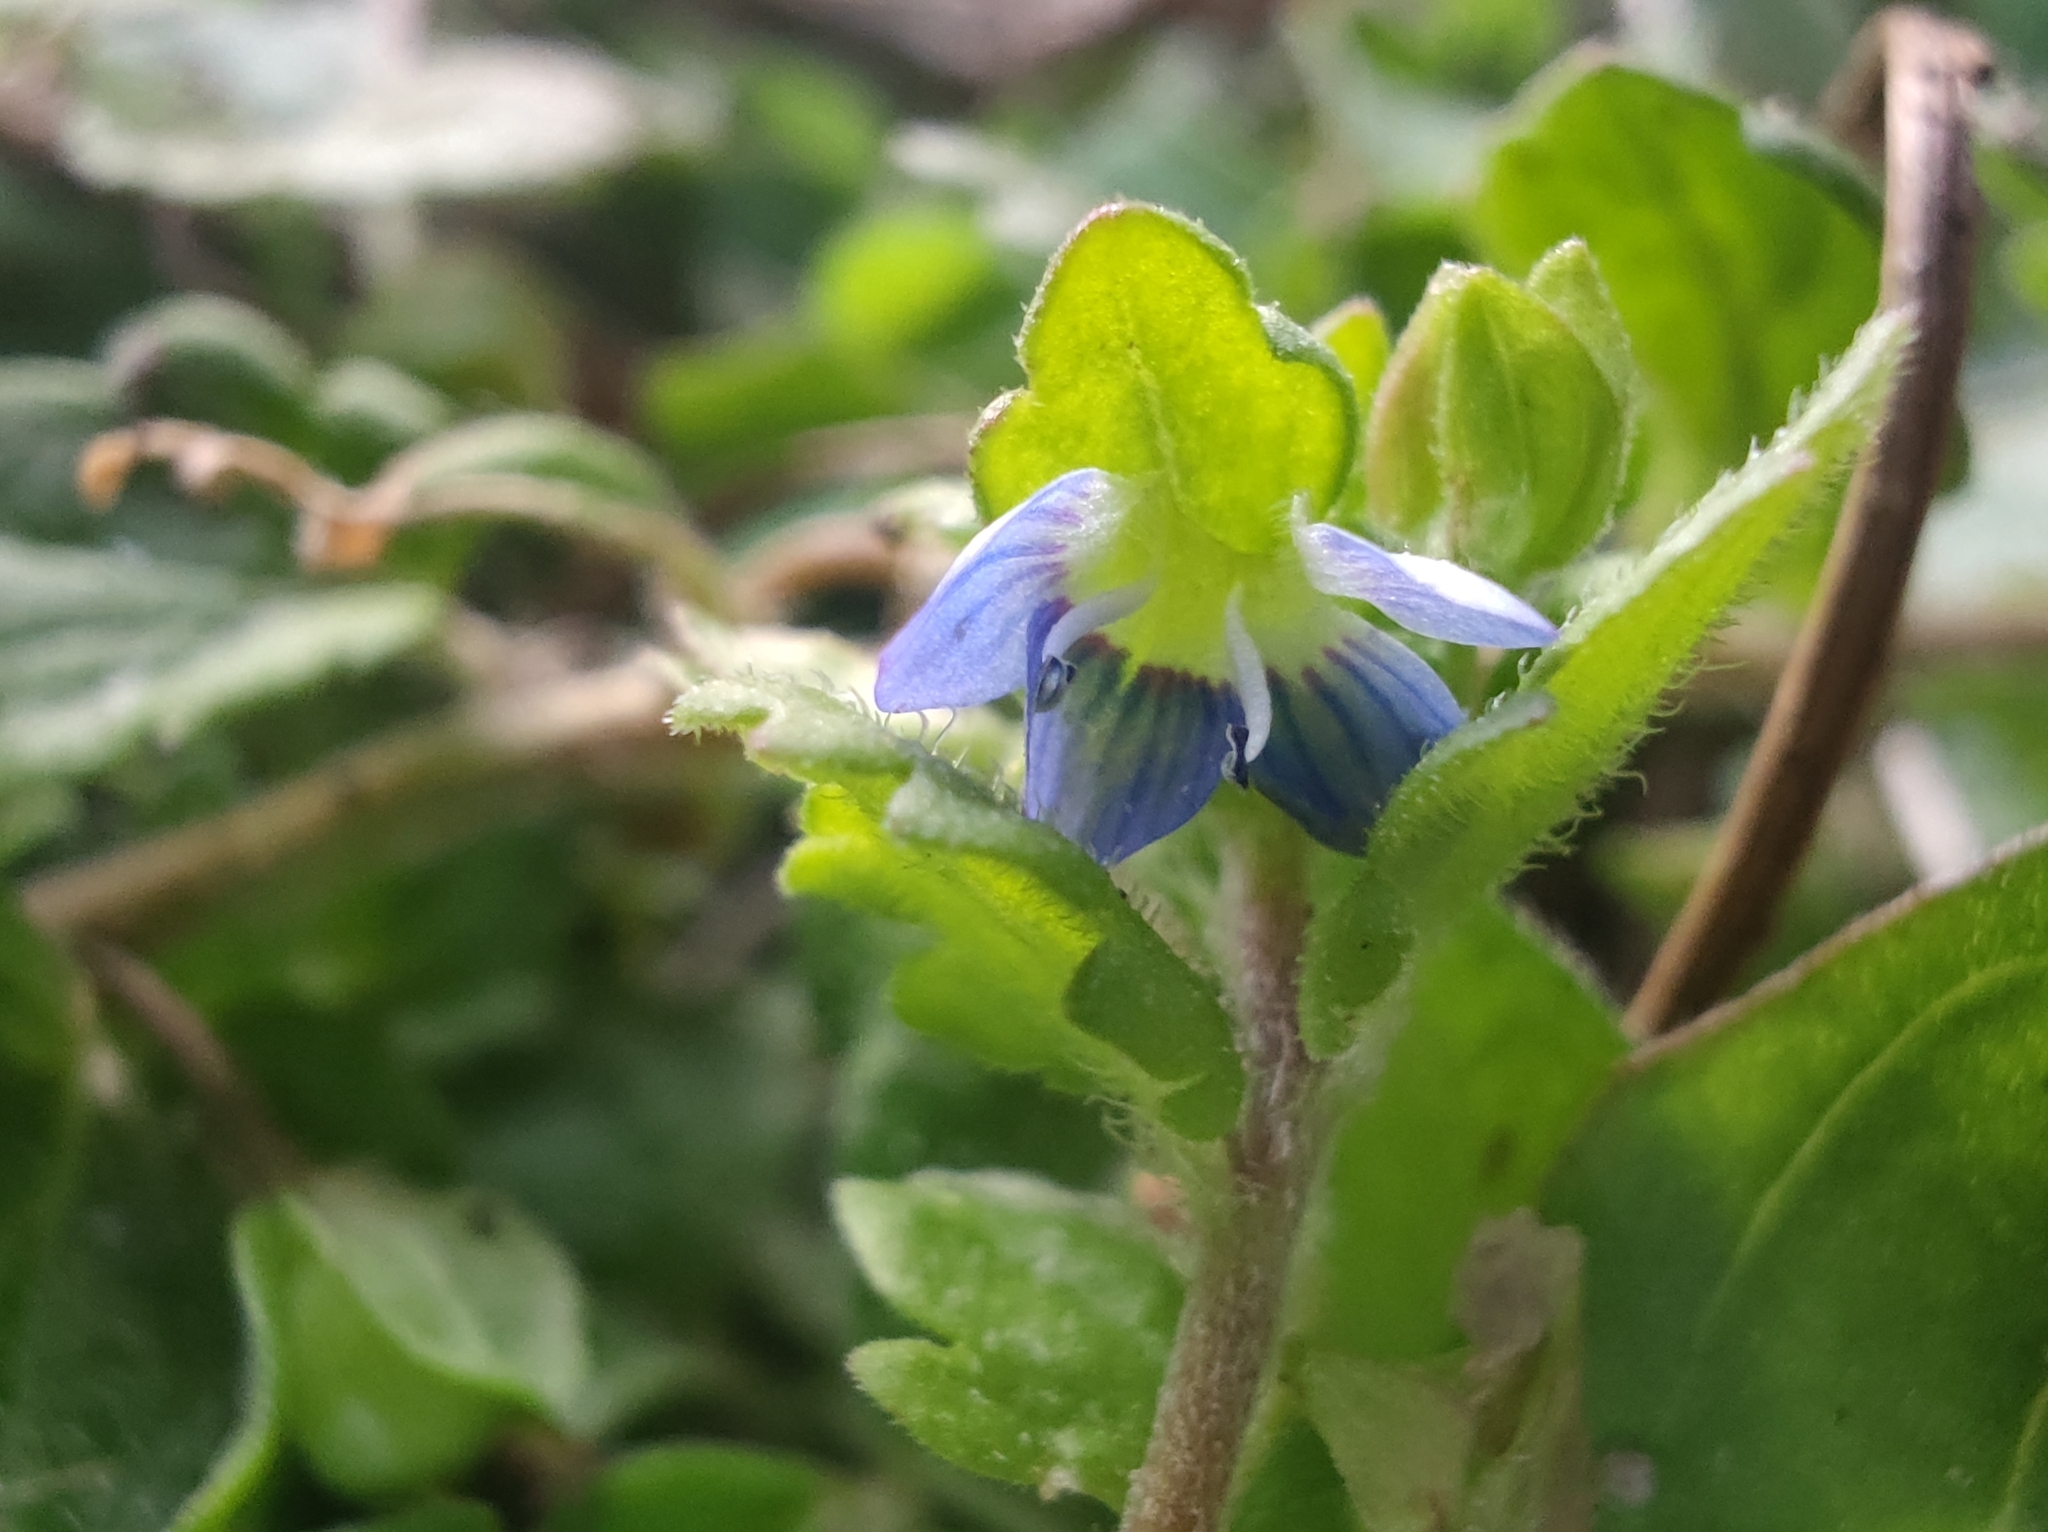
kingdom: Plantae
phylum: Tracheophyta
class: Magnoliopsida
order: Lamiales
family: Plantaginaceae
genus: Veronica
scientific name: Veronica polita
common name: Grey field-speedwell
